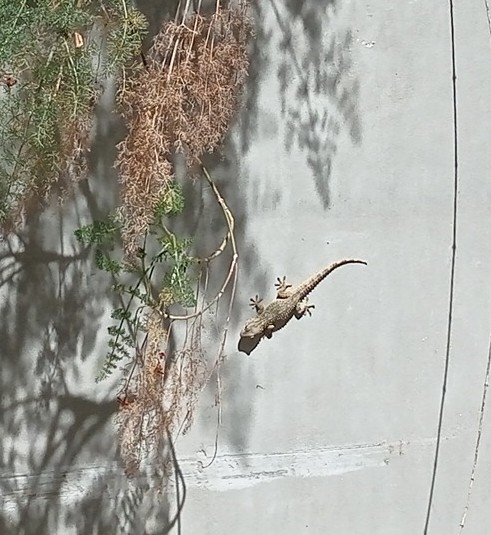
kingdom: Animalia
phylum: Chordata
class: Squamata
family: Phyllodactylidae
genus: Tarentola
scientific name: Tarentola mauritanica
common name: Moorish gecko
